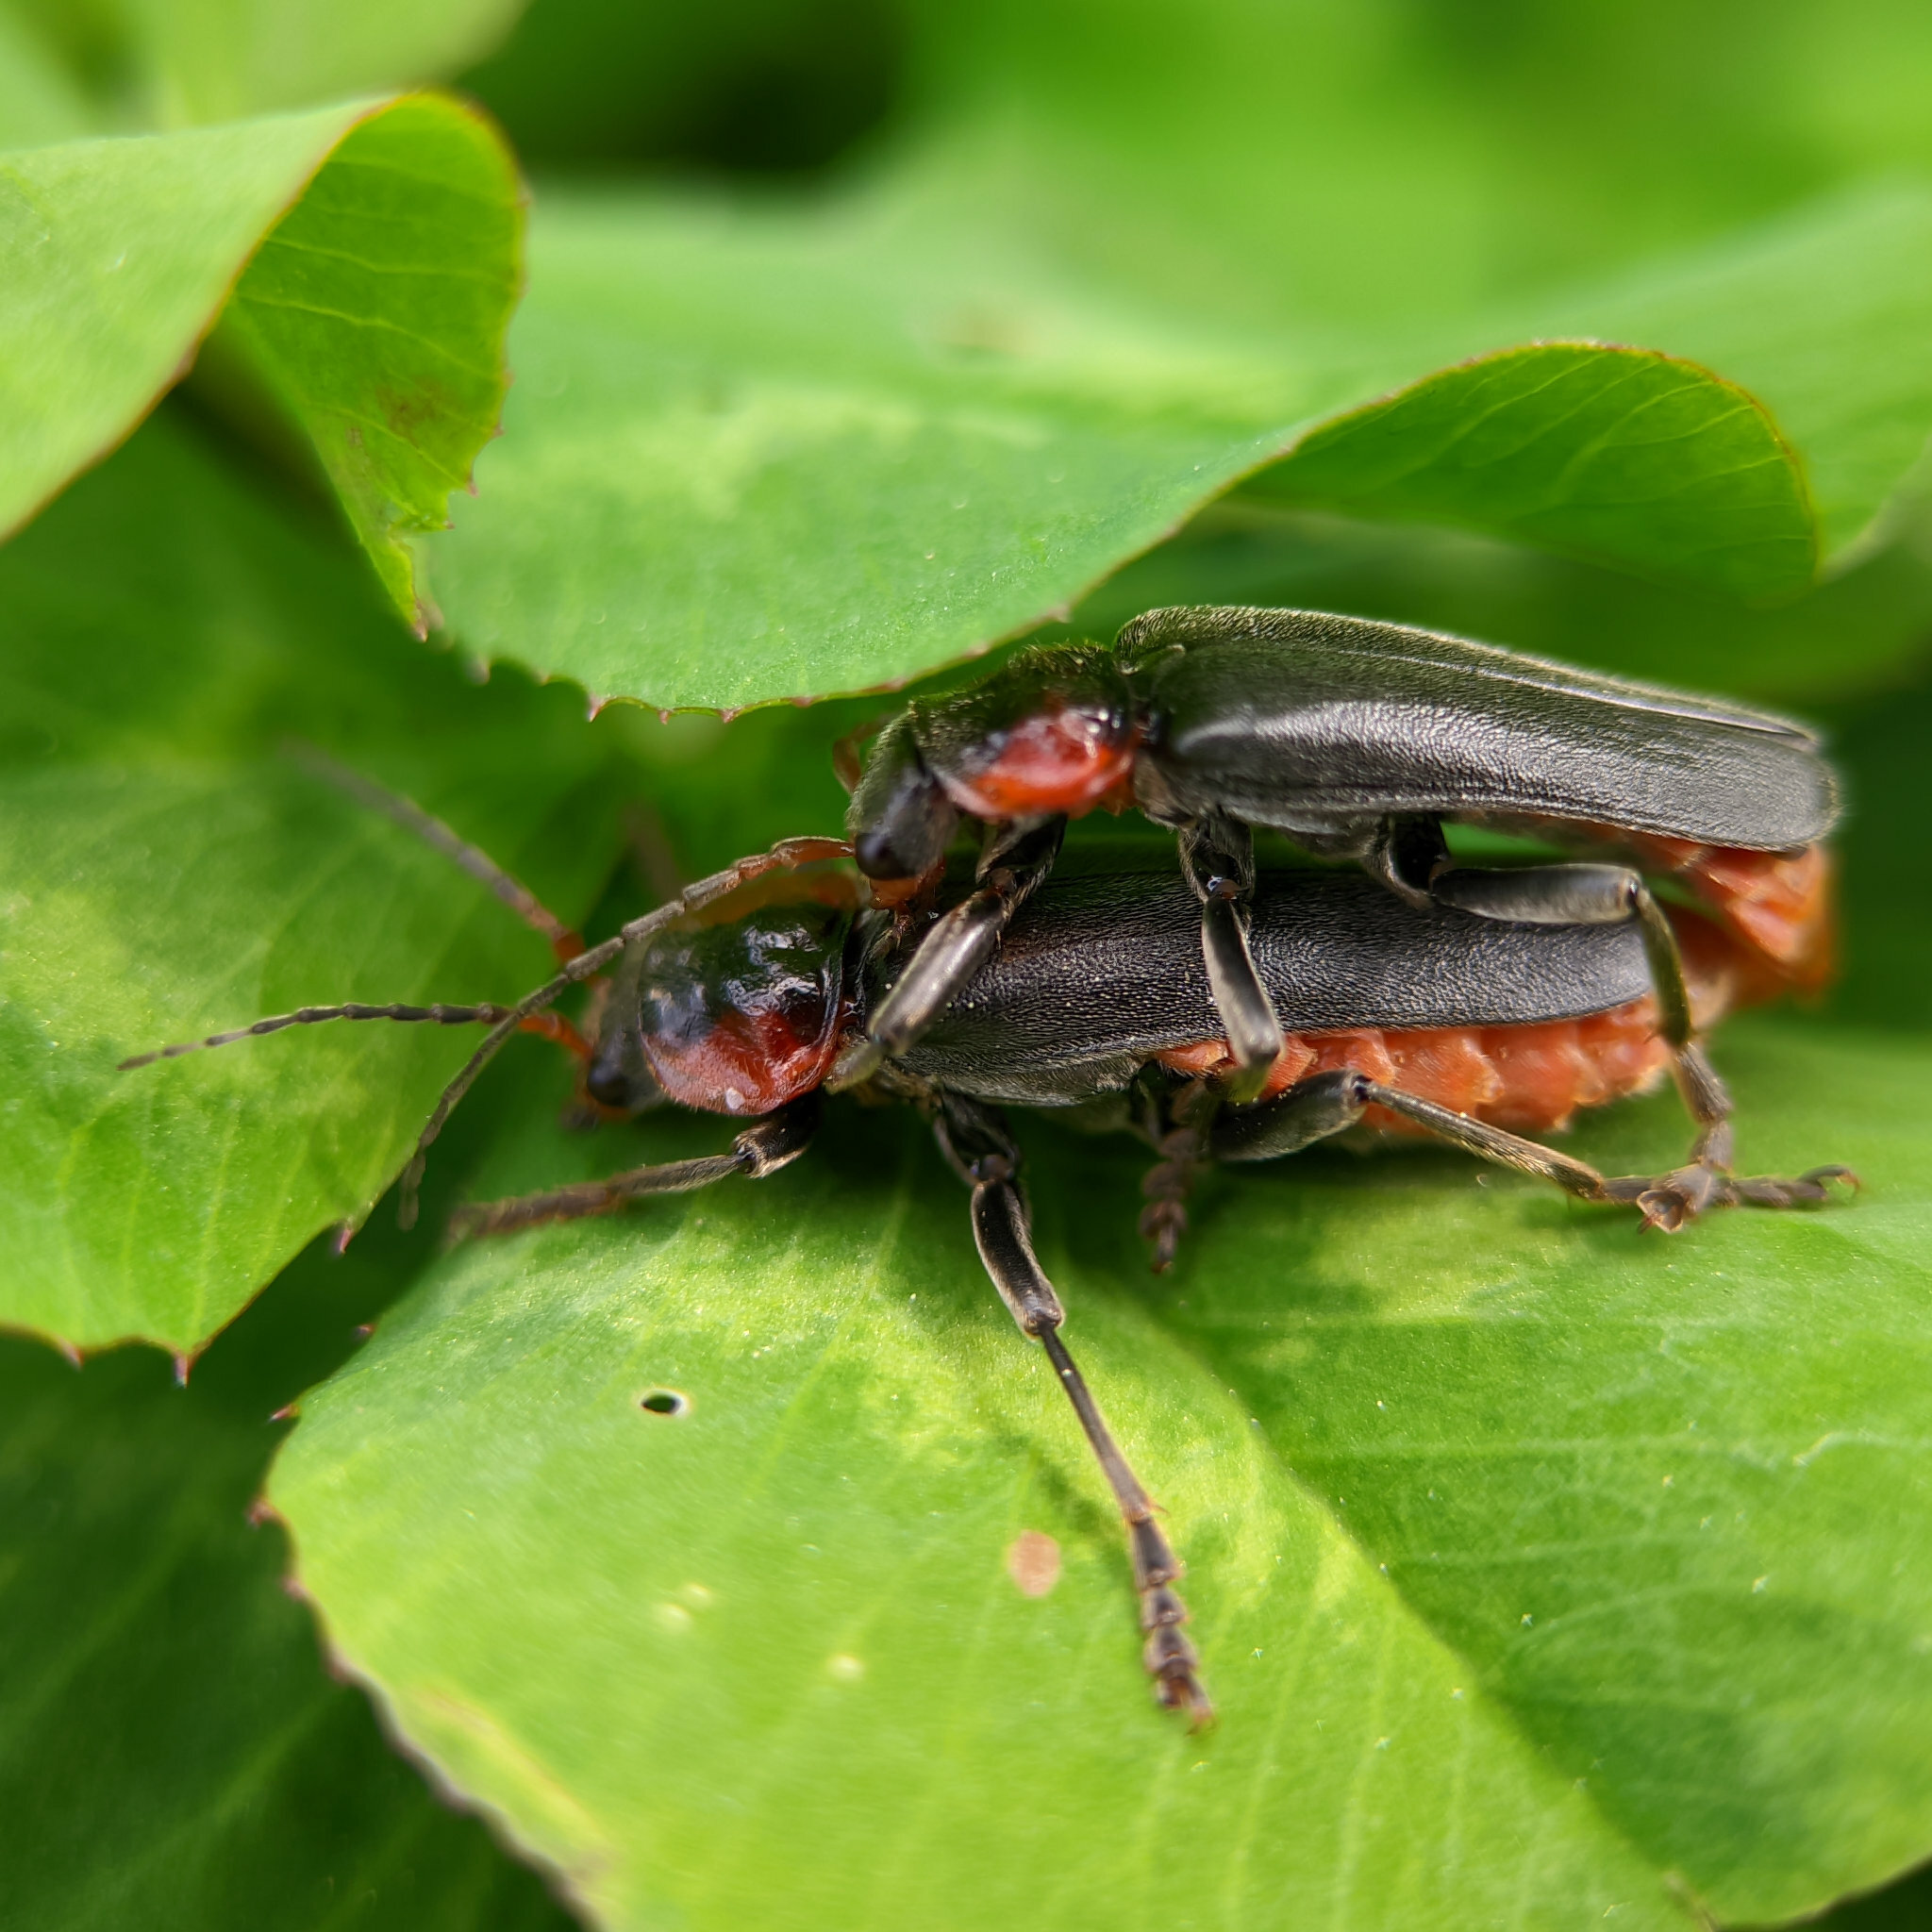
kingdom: Animalia
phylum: Arthropoda
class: Insecta
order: Coleoptera
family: Cantharidae
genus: Cantharis
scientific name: Cantharis fusca
